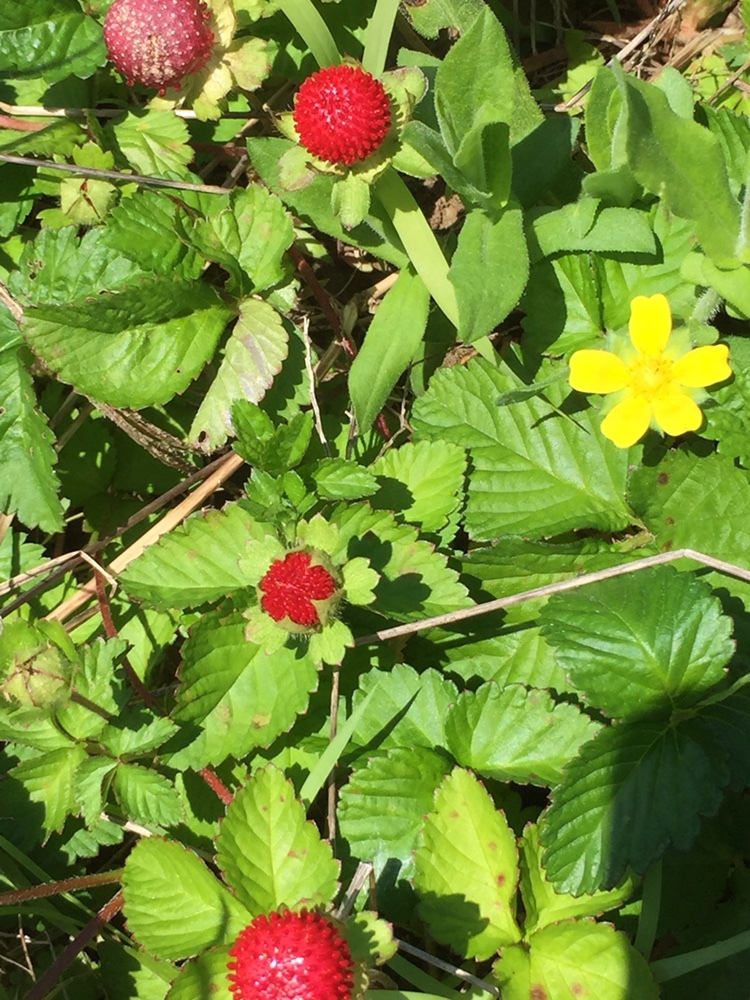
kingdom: Plantae
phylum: Tracheophyta
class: Magnoliopsida
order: Rosales
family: Rosaceae
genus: Potentilla
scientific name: Potentilla indica
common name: Yellow-flowered strawberry
